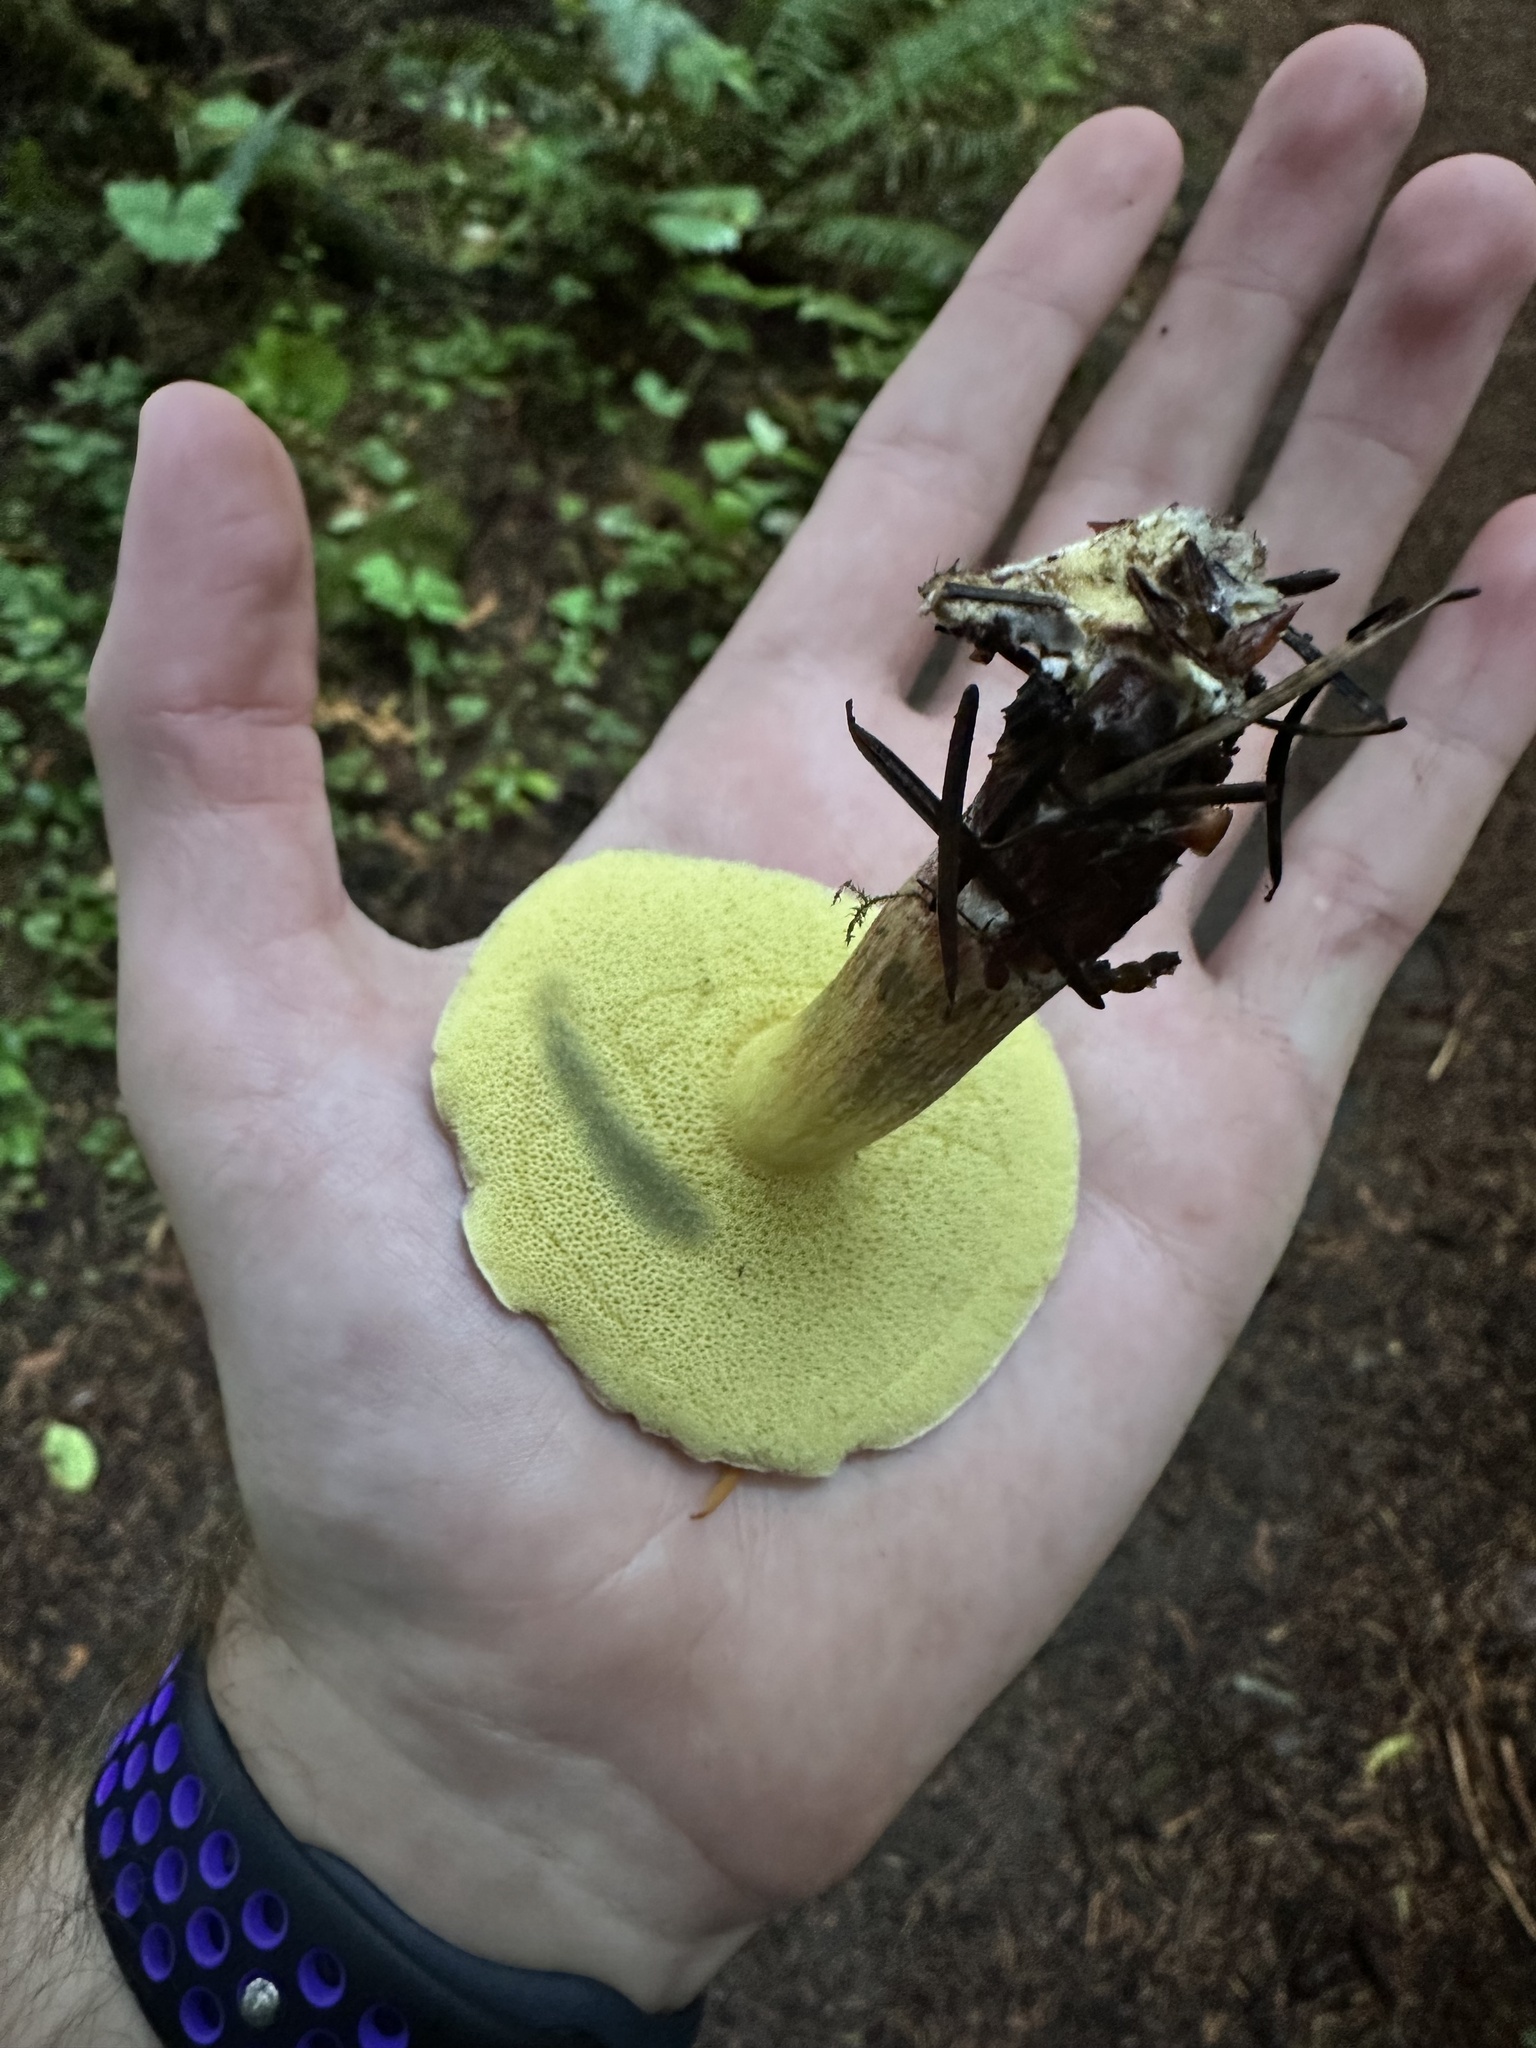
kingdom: Fungi
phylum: Basidiomycota
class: Agaricomycetes
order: Boletales
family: Boletaceae
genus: Xerocomellus
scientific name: Xerocomellus diffractus
